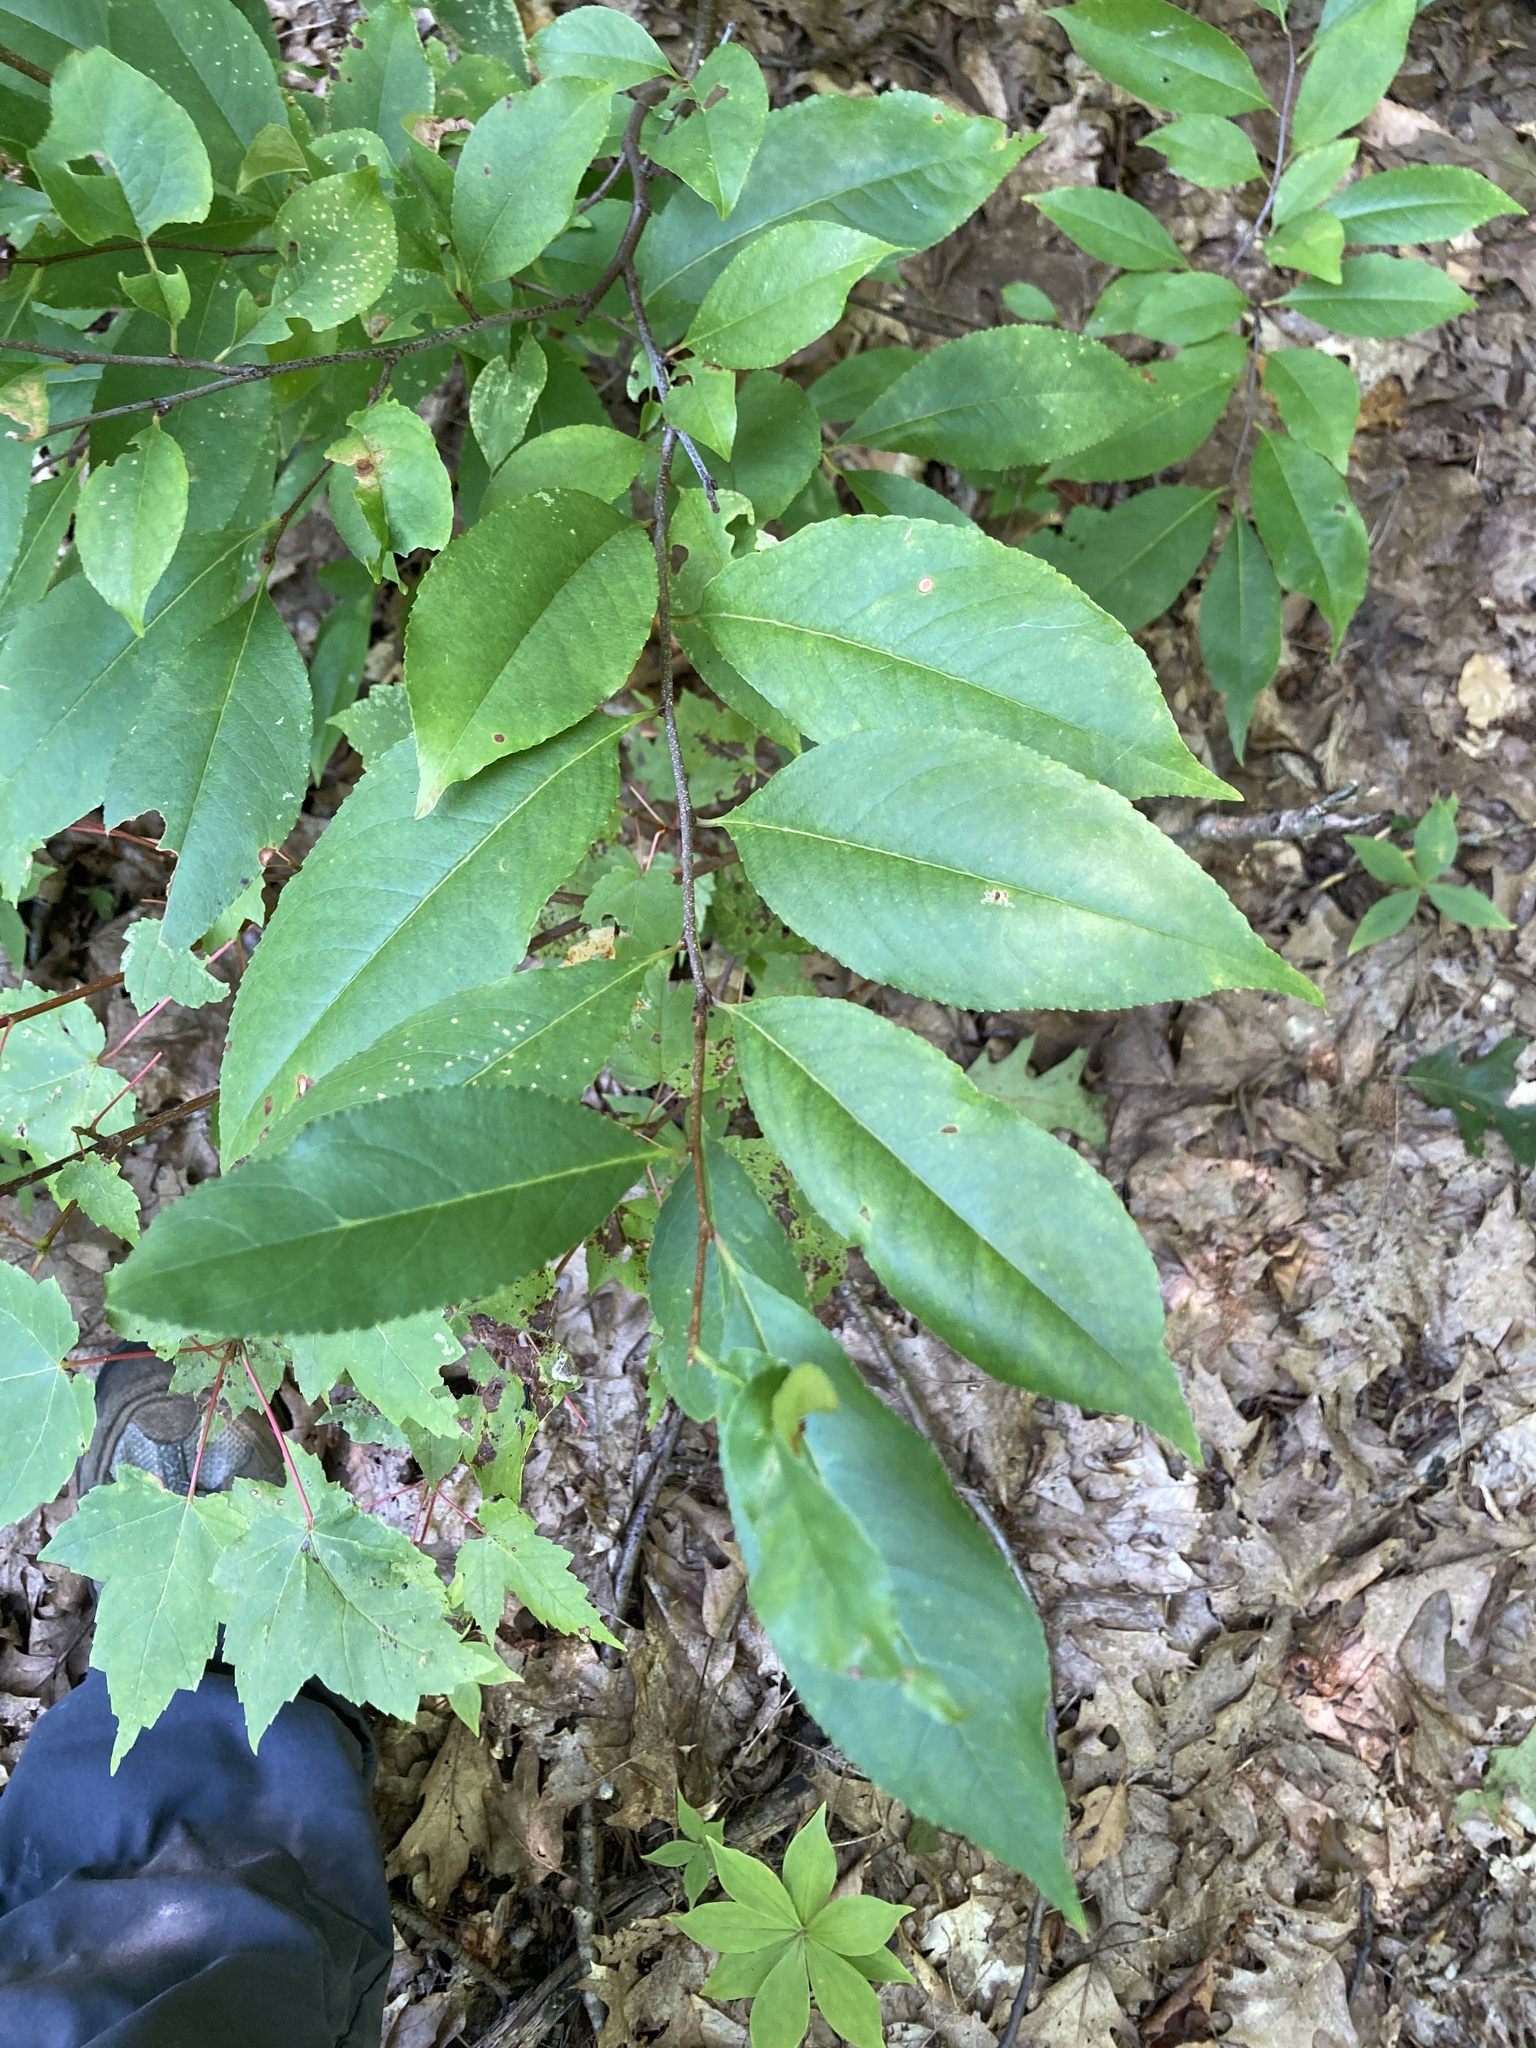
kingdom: Plantae
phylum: Tracheophyta
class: Magnoliopsida
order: Rosales
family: Rosaceae
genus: Prunus
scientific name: Prunus serotina
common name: Black cherry
